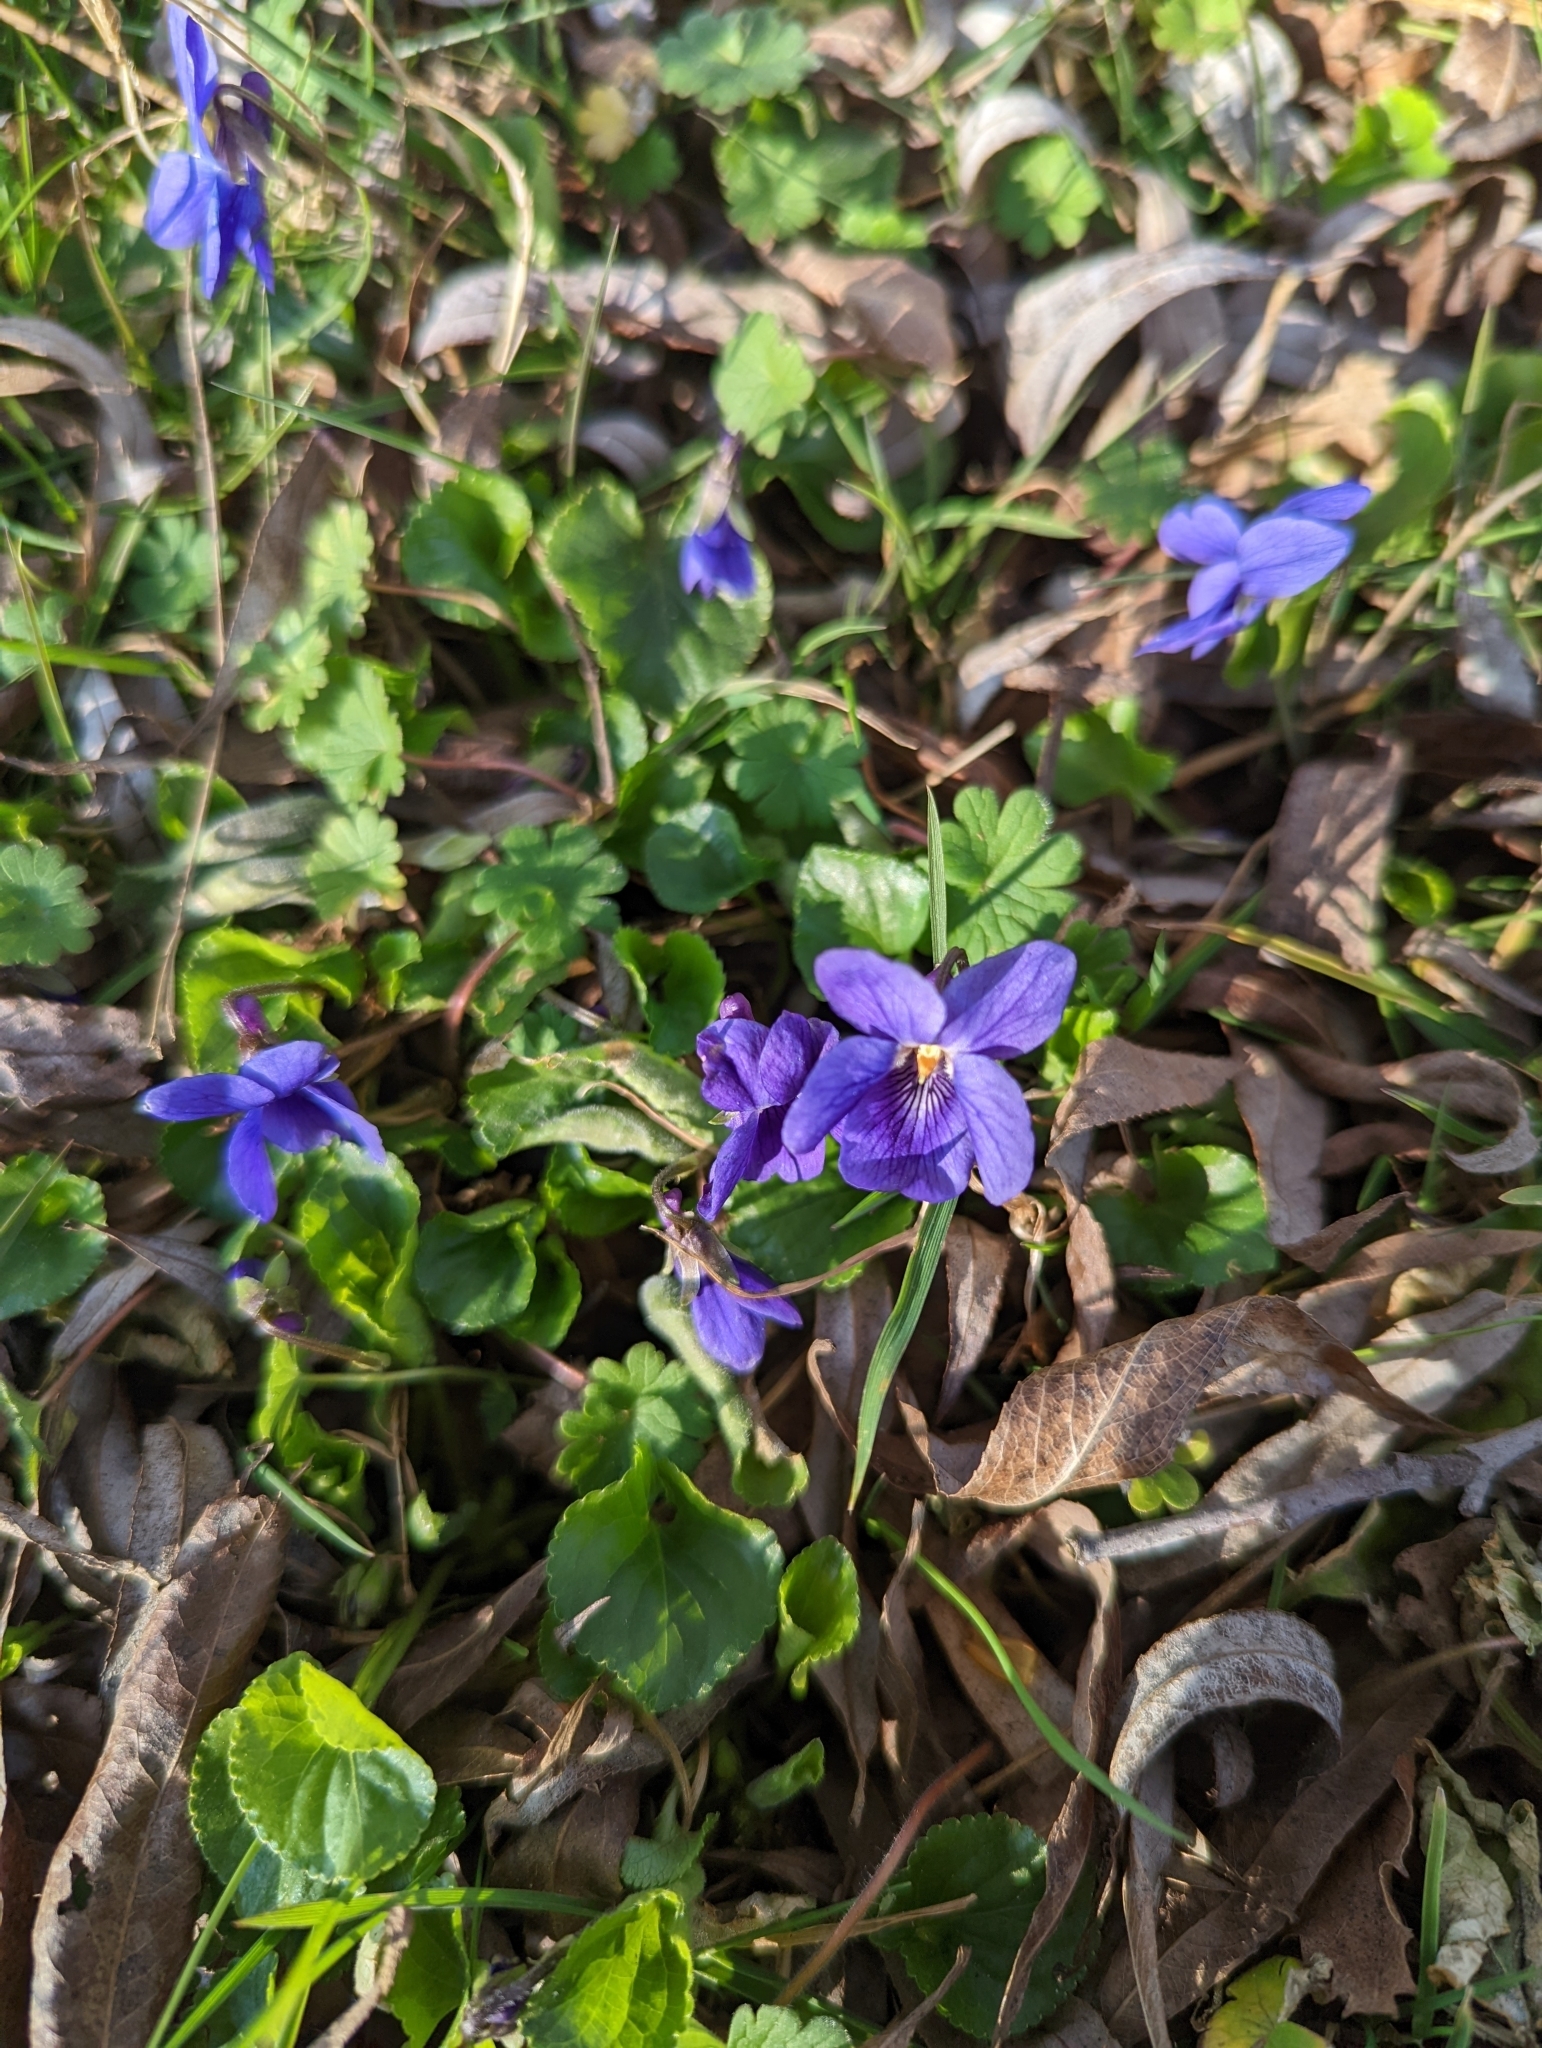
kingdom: Plantae
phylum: Tracheophyta
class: Magnoliopsida
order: Malpighiales
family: Violaceae
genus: Viola
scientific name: Viola odorata
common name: Sweet violet
